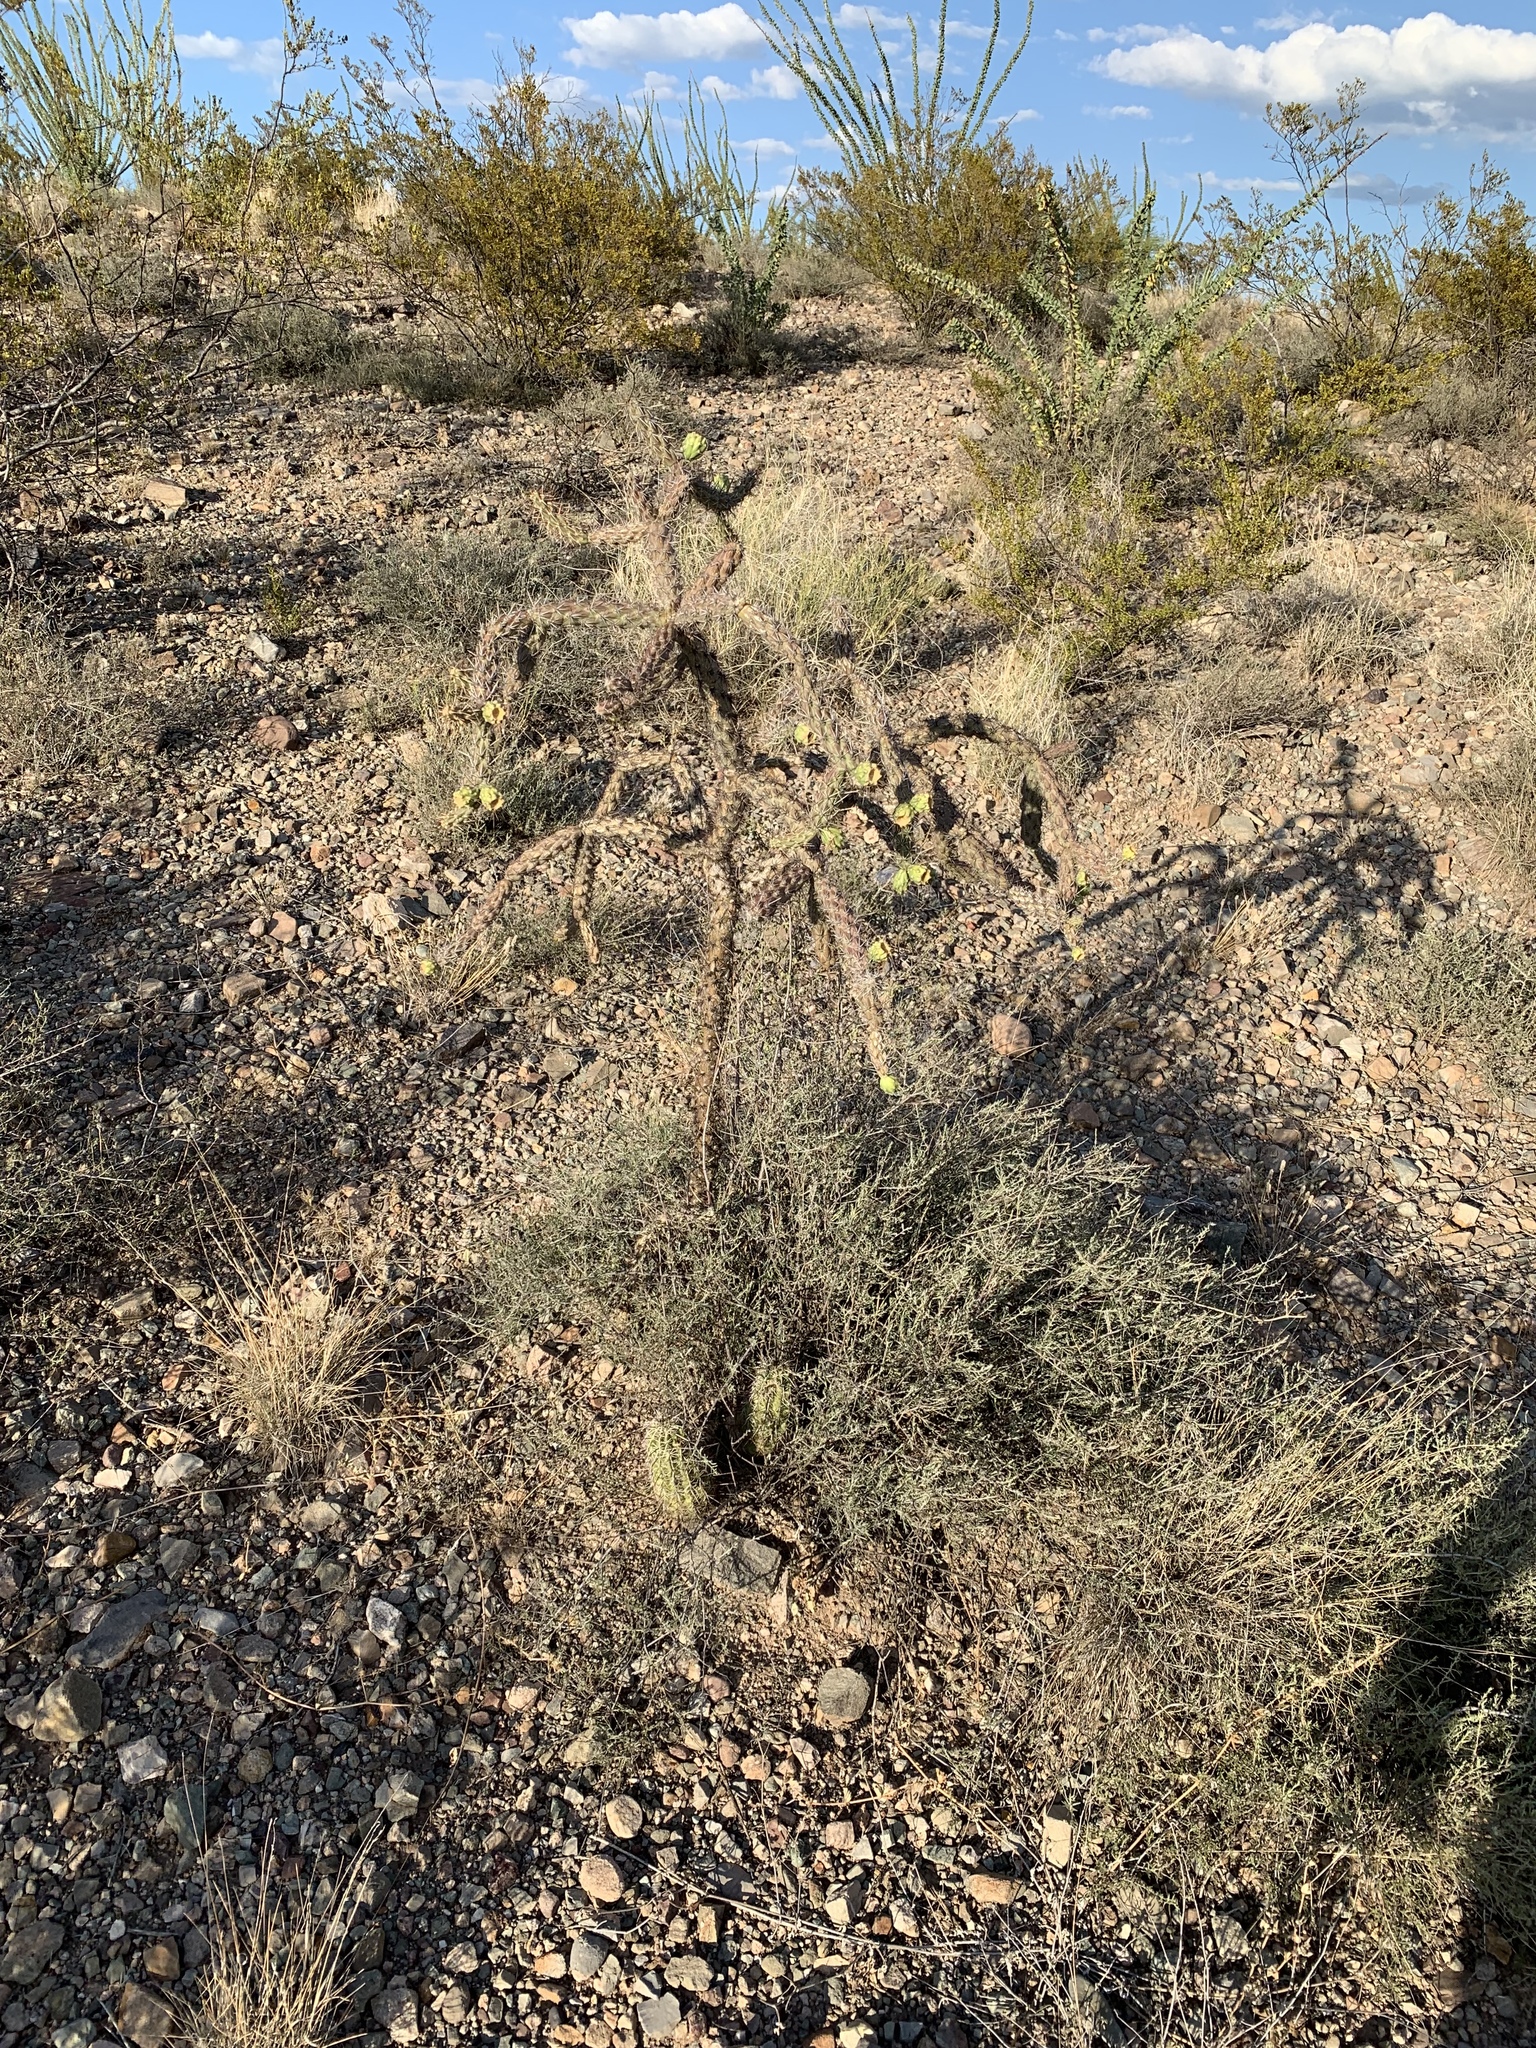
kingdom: Plantae
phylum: Tracheophyta
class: Magnoliopsida
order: Caryophyllales
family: Cactaceae
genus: Cylindropuntia
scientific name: Cylindropuntia thurberi
